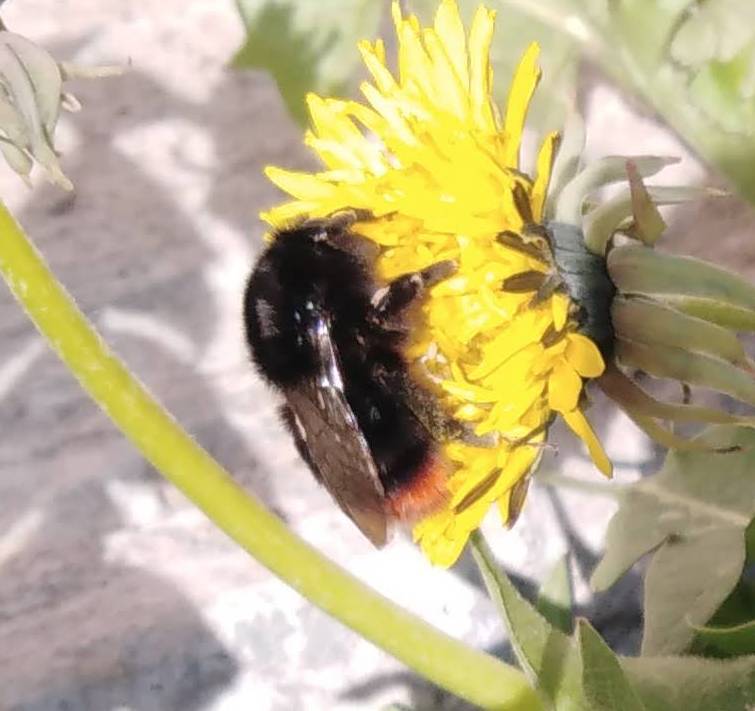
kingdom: Animalia
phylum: Arthropoda
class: Insecta
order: Hymenoptera
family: Apidae
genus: Bombus
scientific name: Bombus lapidarius
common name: Large red-tailed humble-bee
